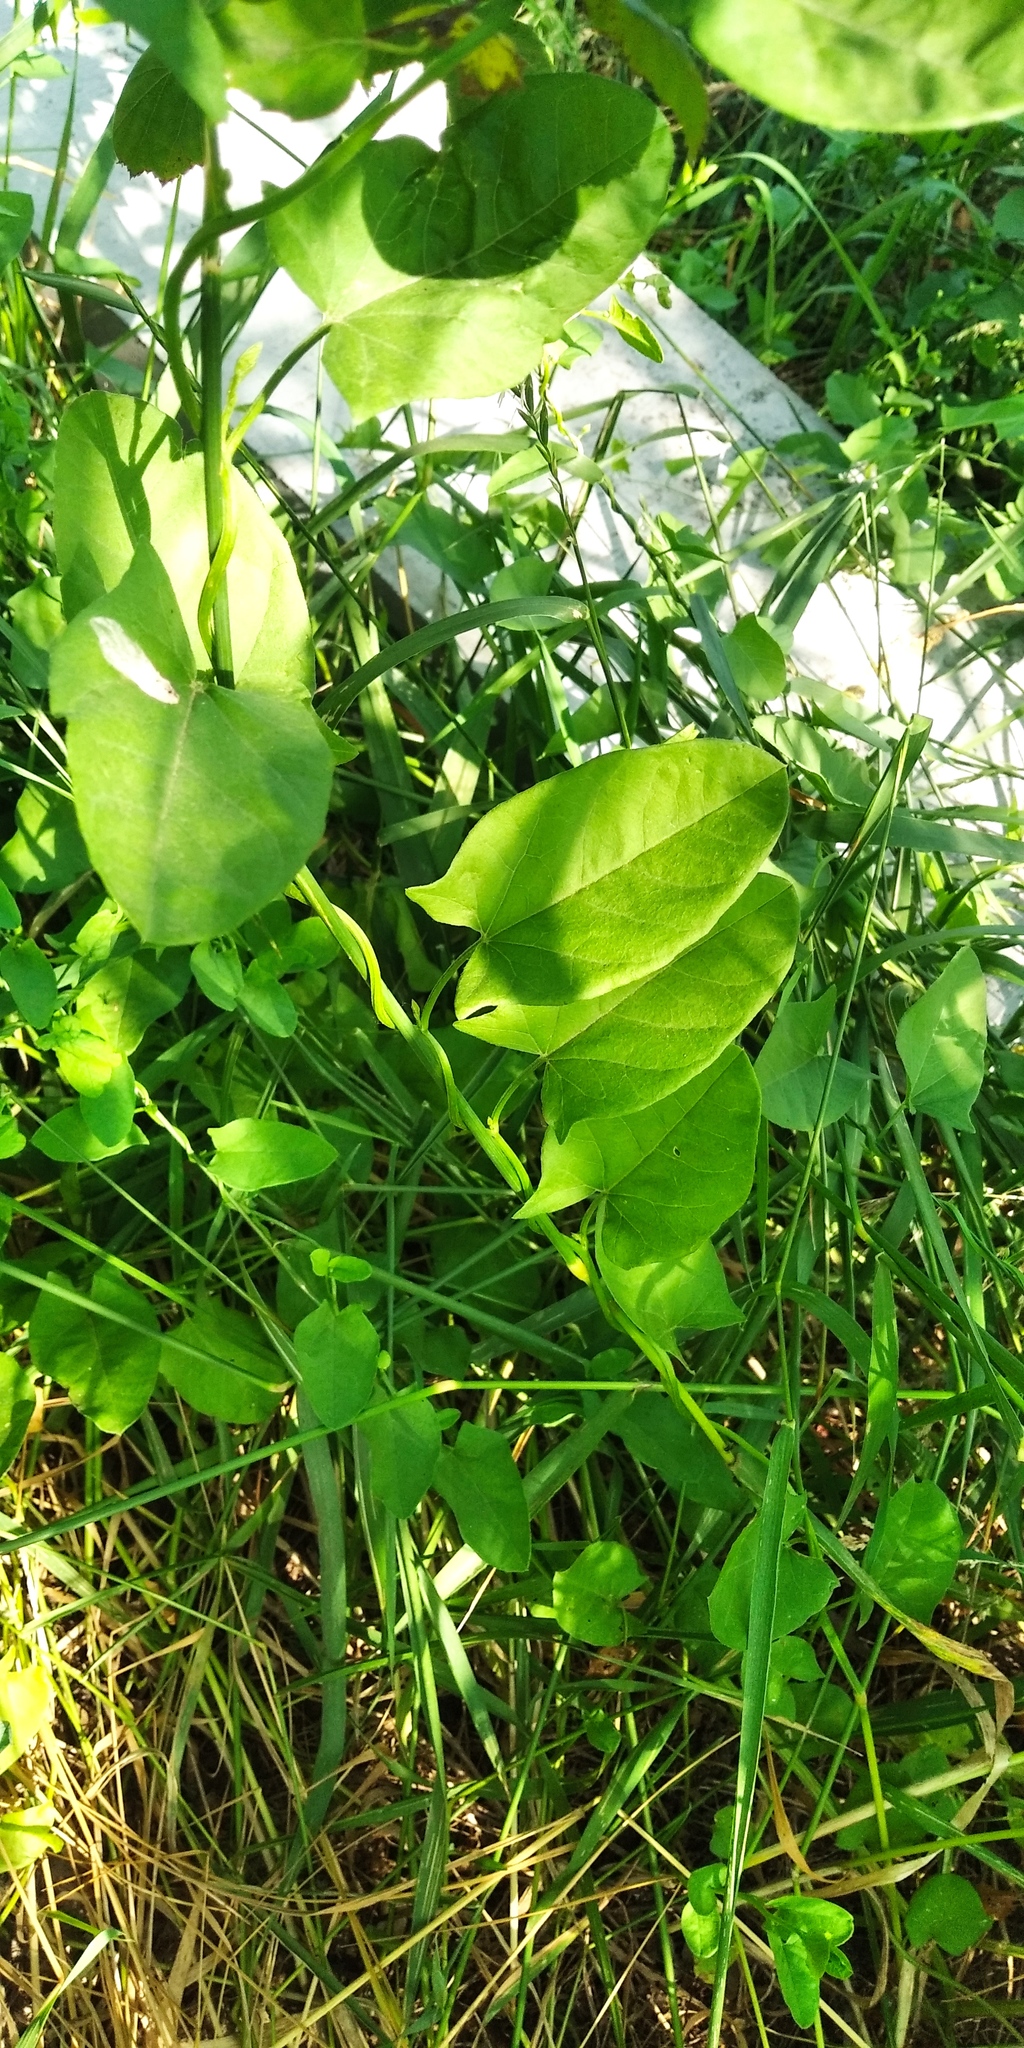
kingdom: Plantae
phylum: Tracheophyta
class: Magnoliopsida
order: Solanales
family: Convolvulaceae
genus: Convolvulus
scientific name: Convolvulus arvensis
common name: Field bindweed
